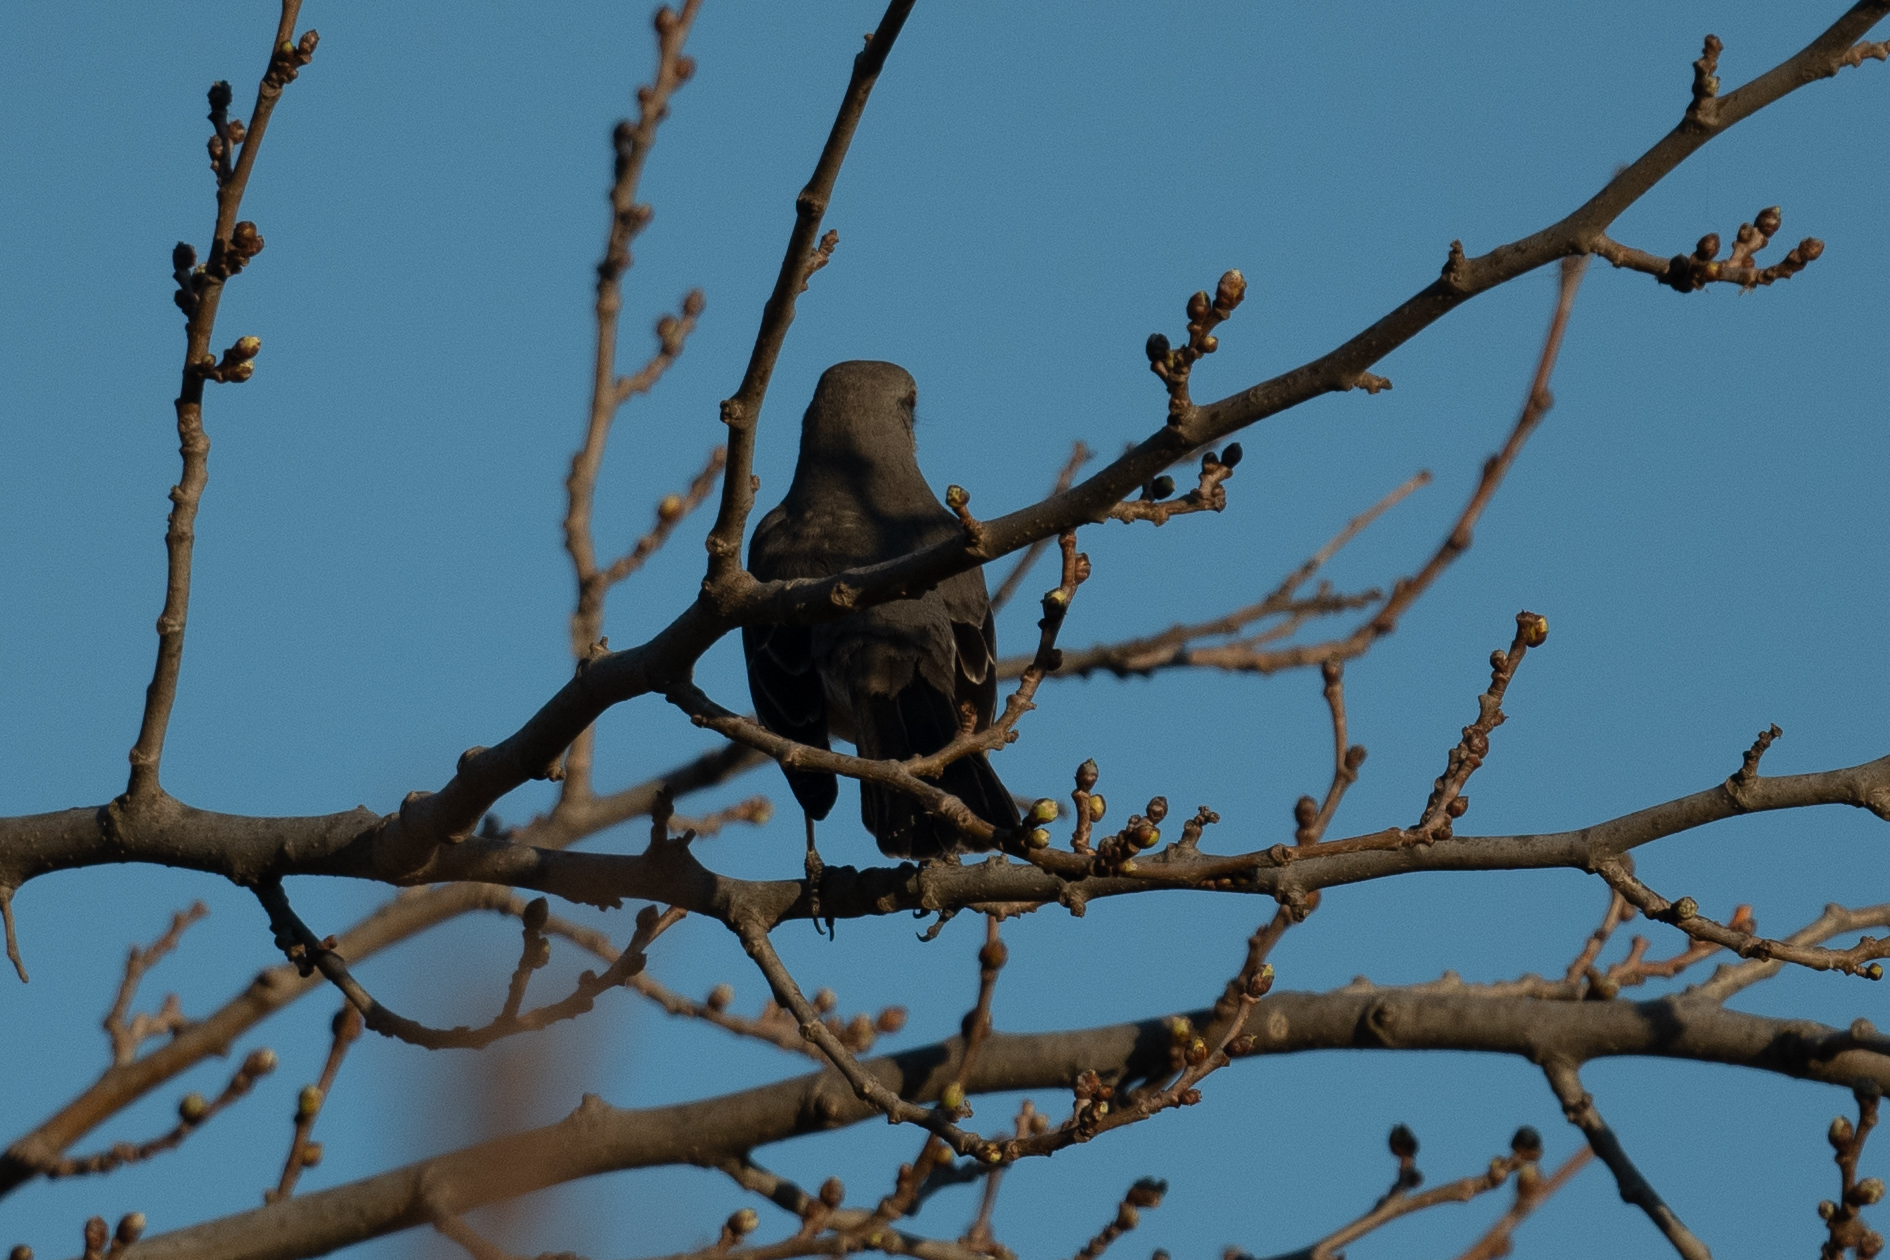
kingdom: Animalia
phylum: Chordata
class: Aves
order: Passeriformes
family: Mimidae
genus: Mimus
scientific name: Mimus polyglottos
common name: Northern mockingbird
